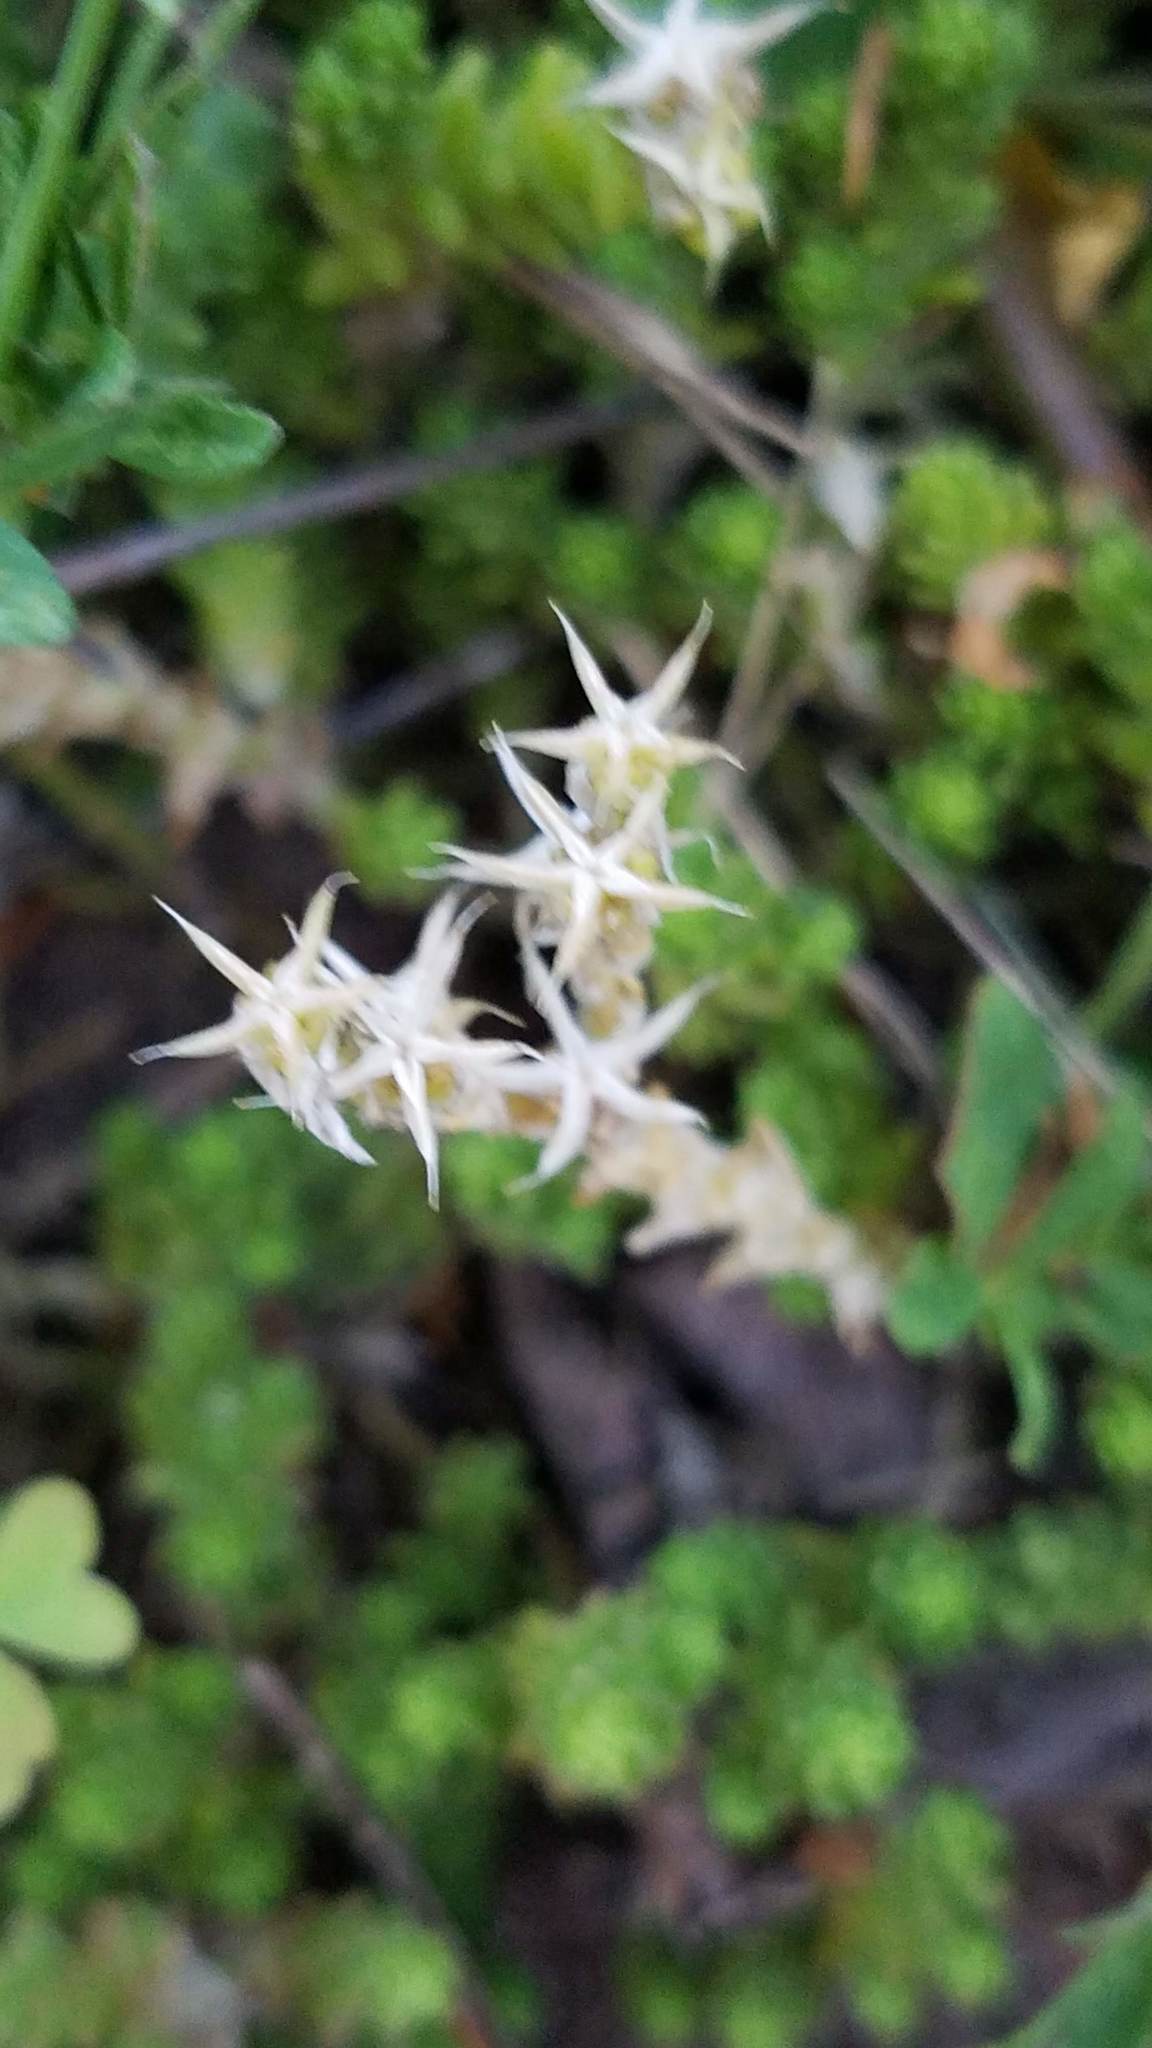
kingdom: Plantae
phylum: Tracheophyta
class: Magnoliopsida
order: Saxifragales
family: Crassulaceae
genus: Sedum
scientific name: Sedum acre
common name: Biting stonecrop
